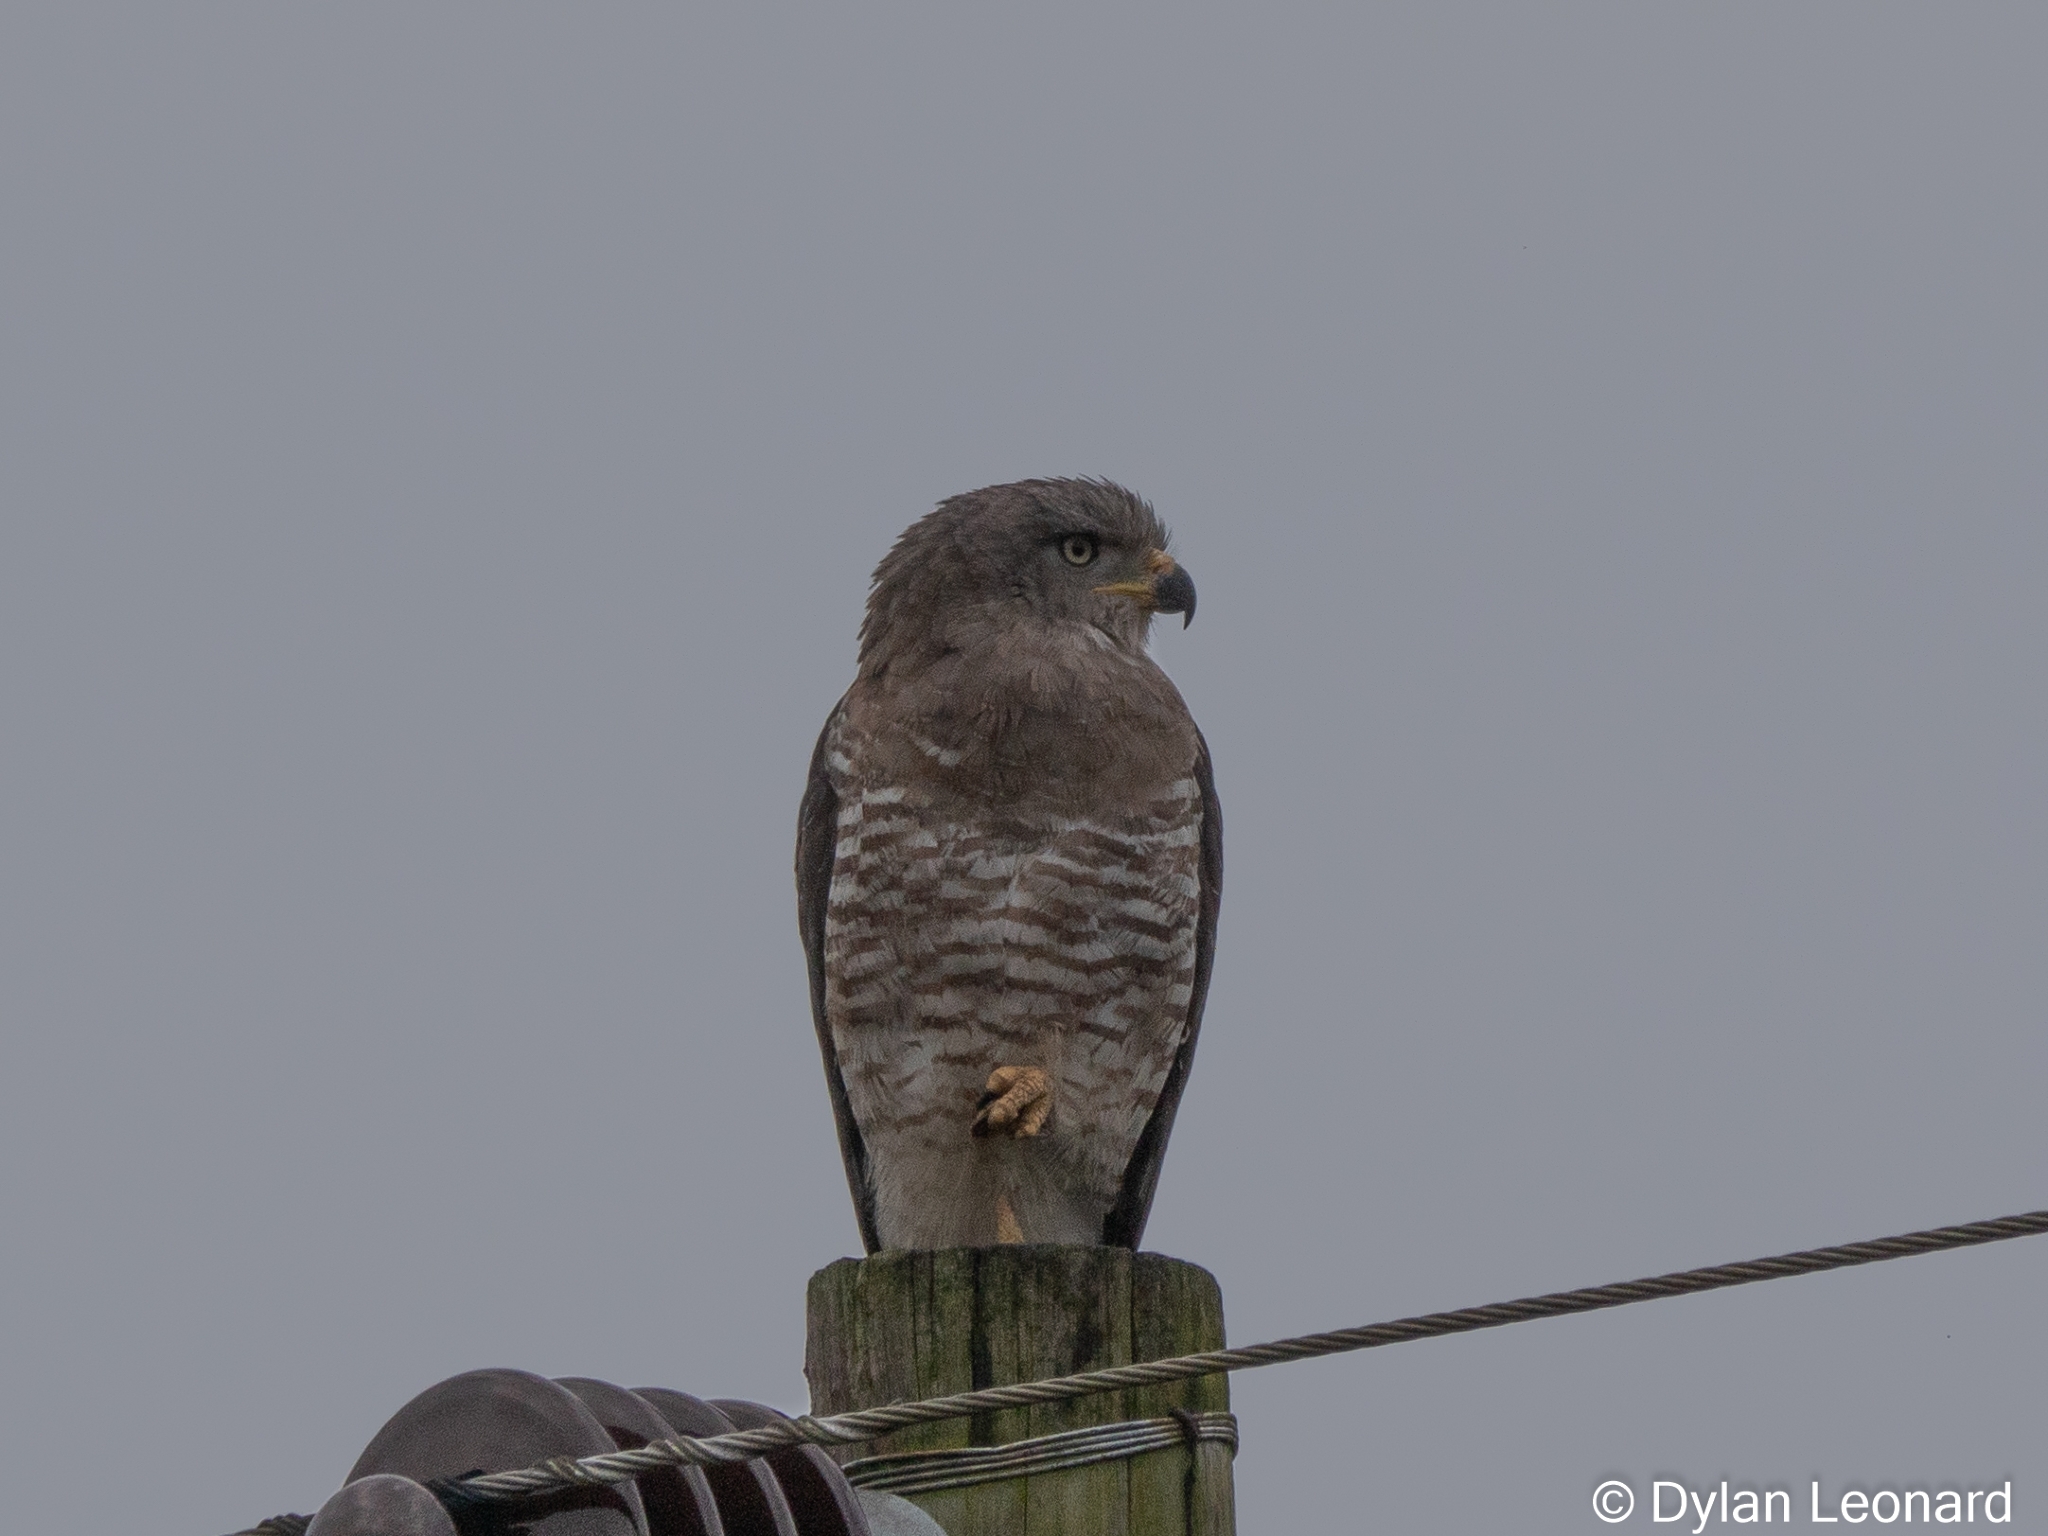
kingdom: Animalia
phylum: Chordata
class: Aves
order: Accipitriformes
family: Accipitridae
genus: Circaetus
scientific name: Circaetus fasciolatus
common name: Southern banded snake eagle
